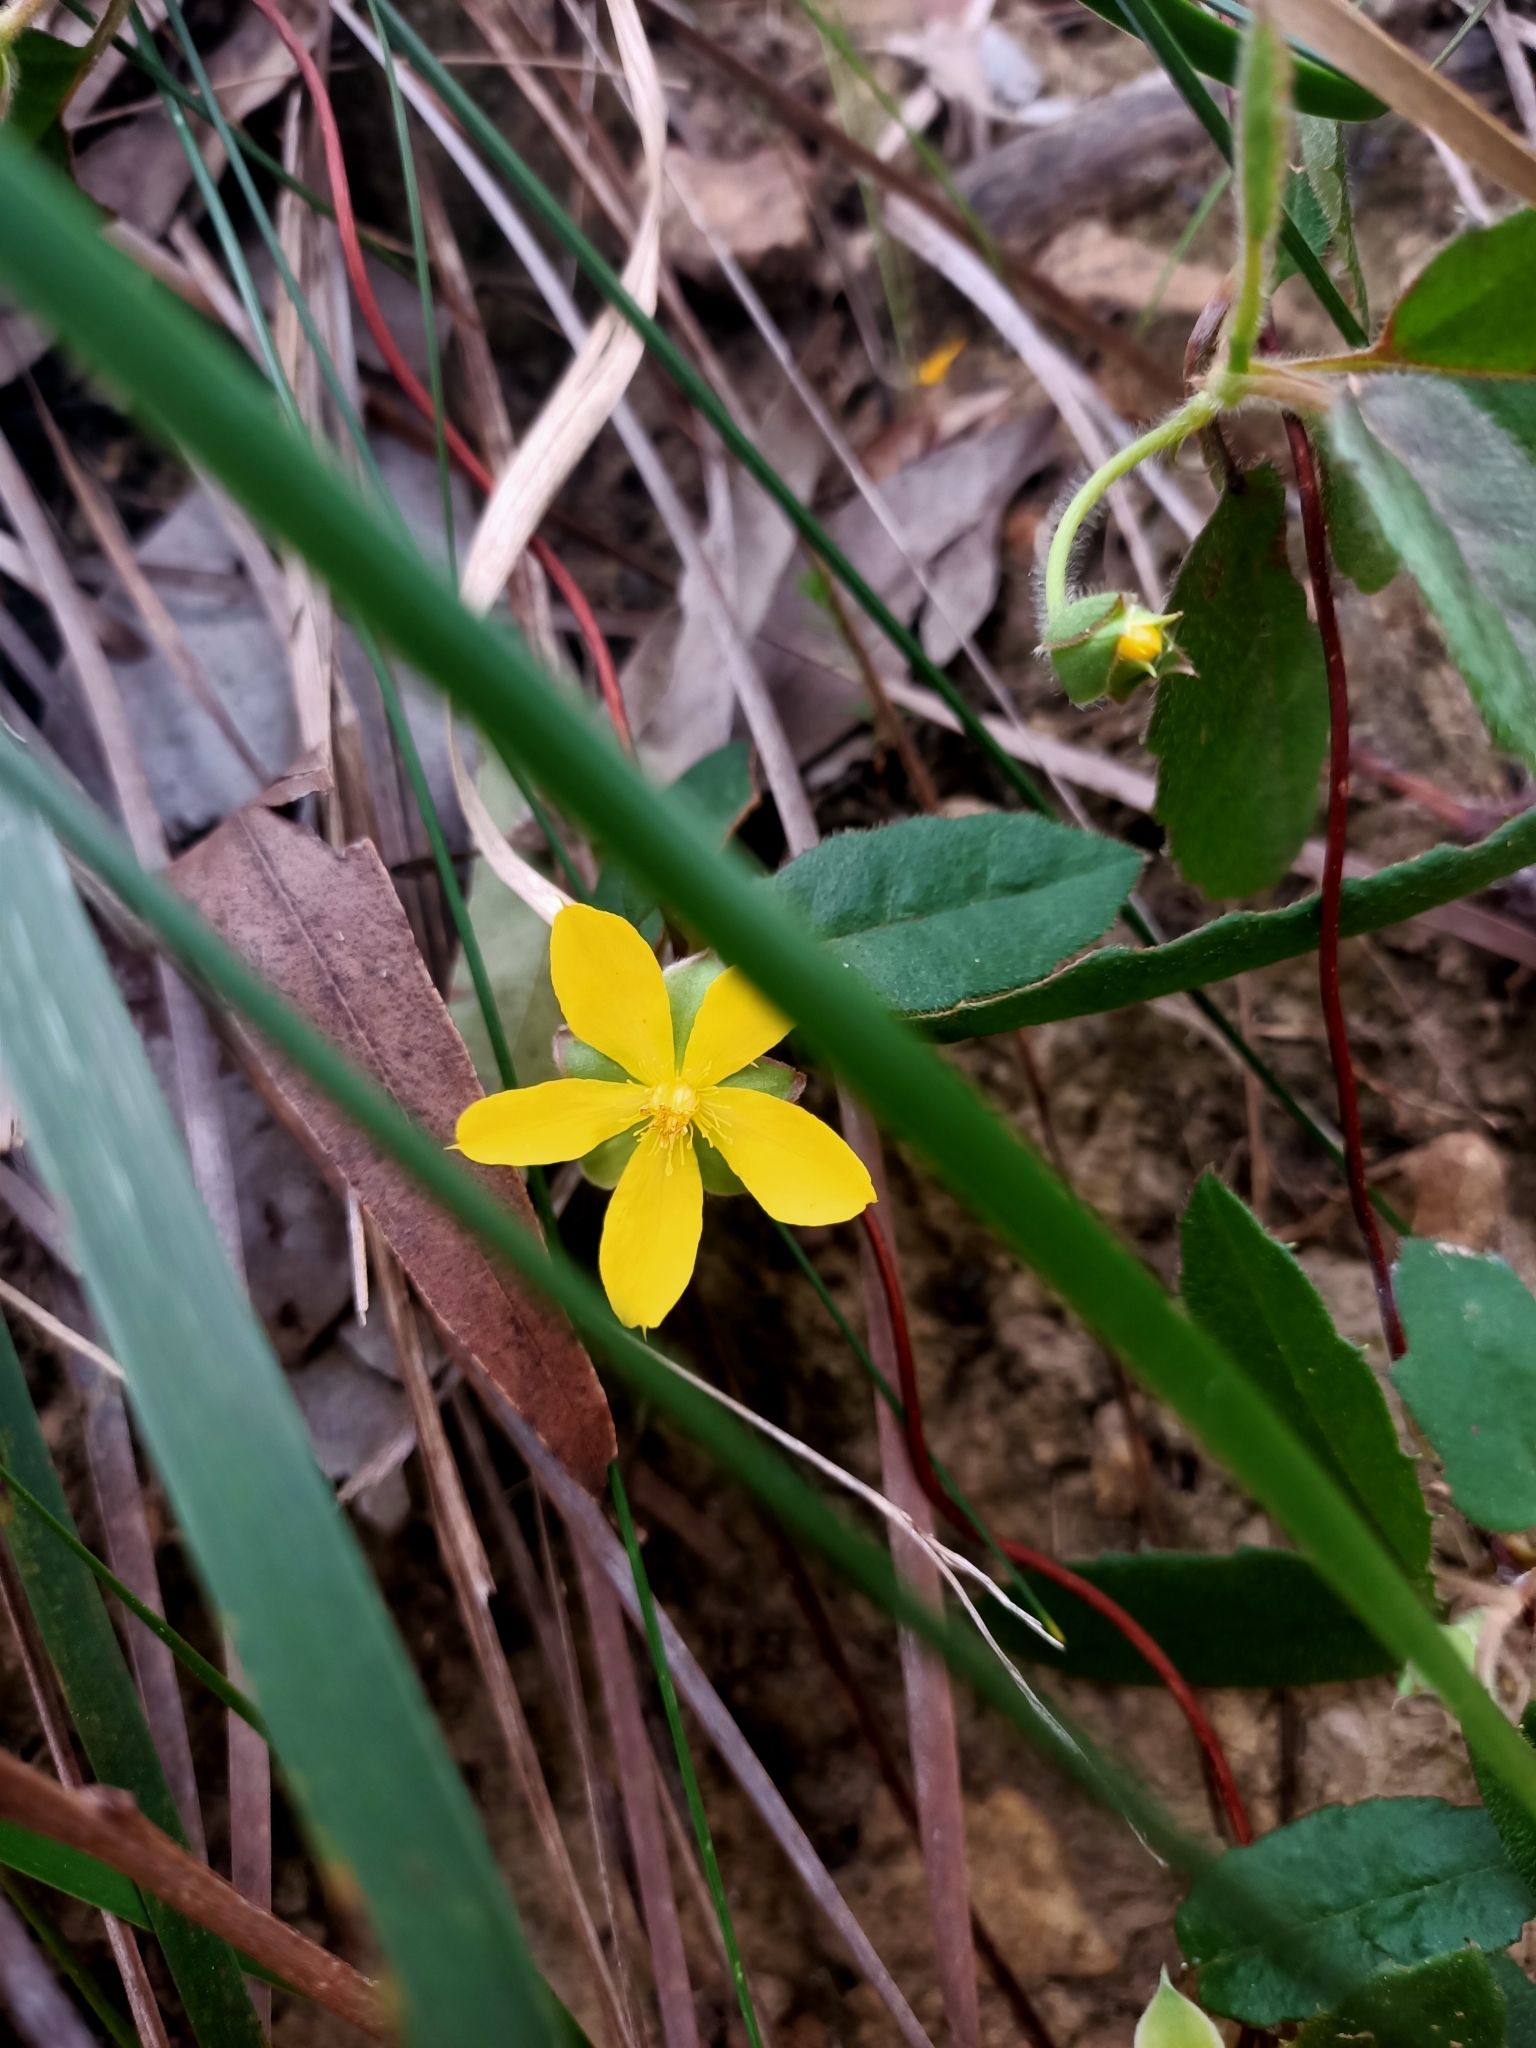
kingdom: Plantae
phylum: Tracheophyta
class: Magnoliopsida
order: Dilleniales
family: Dilleniaceae
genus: Hibbertia
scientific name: Hibbertia dentata
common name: Trailing guinea-flower
